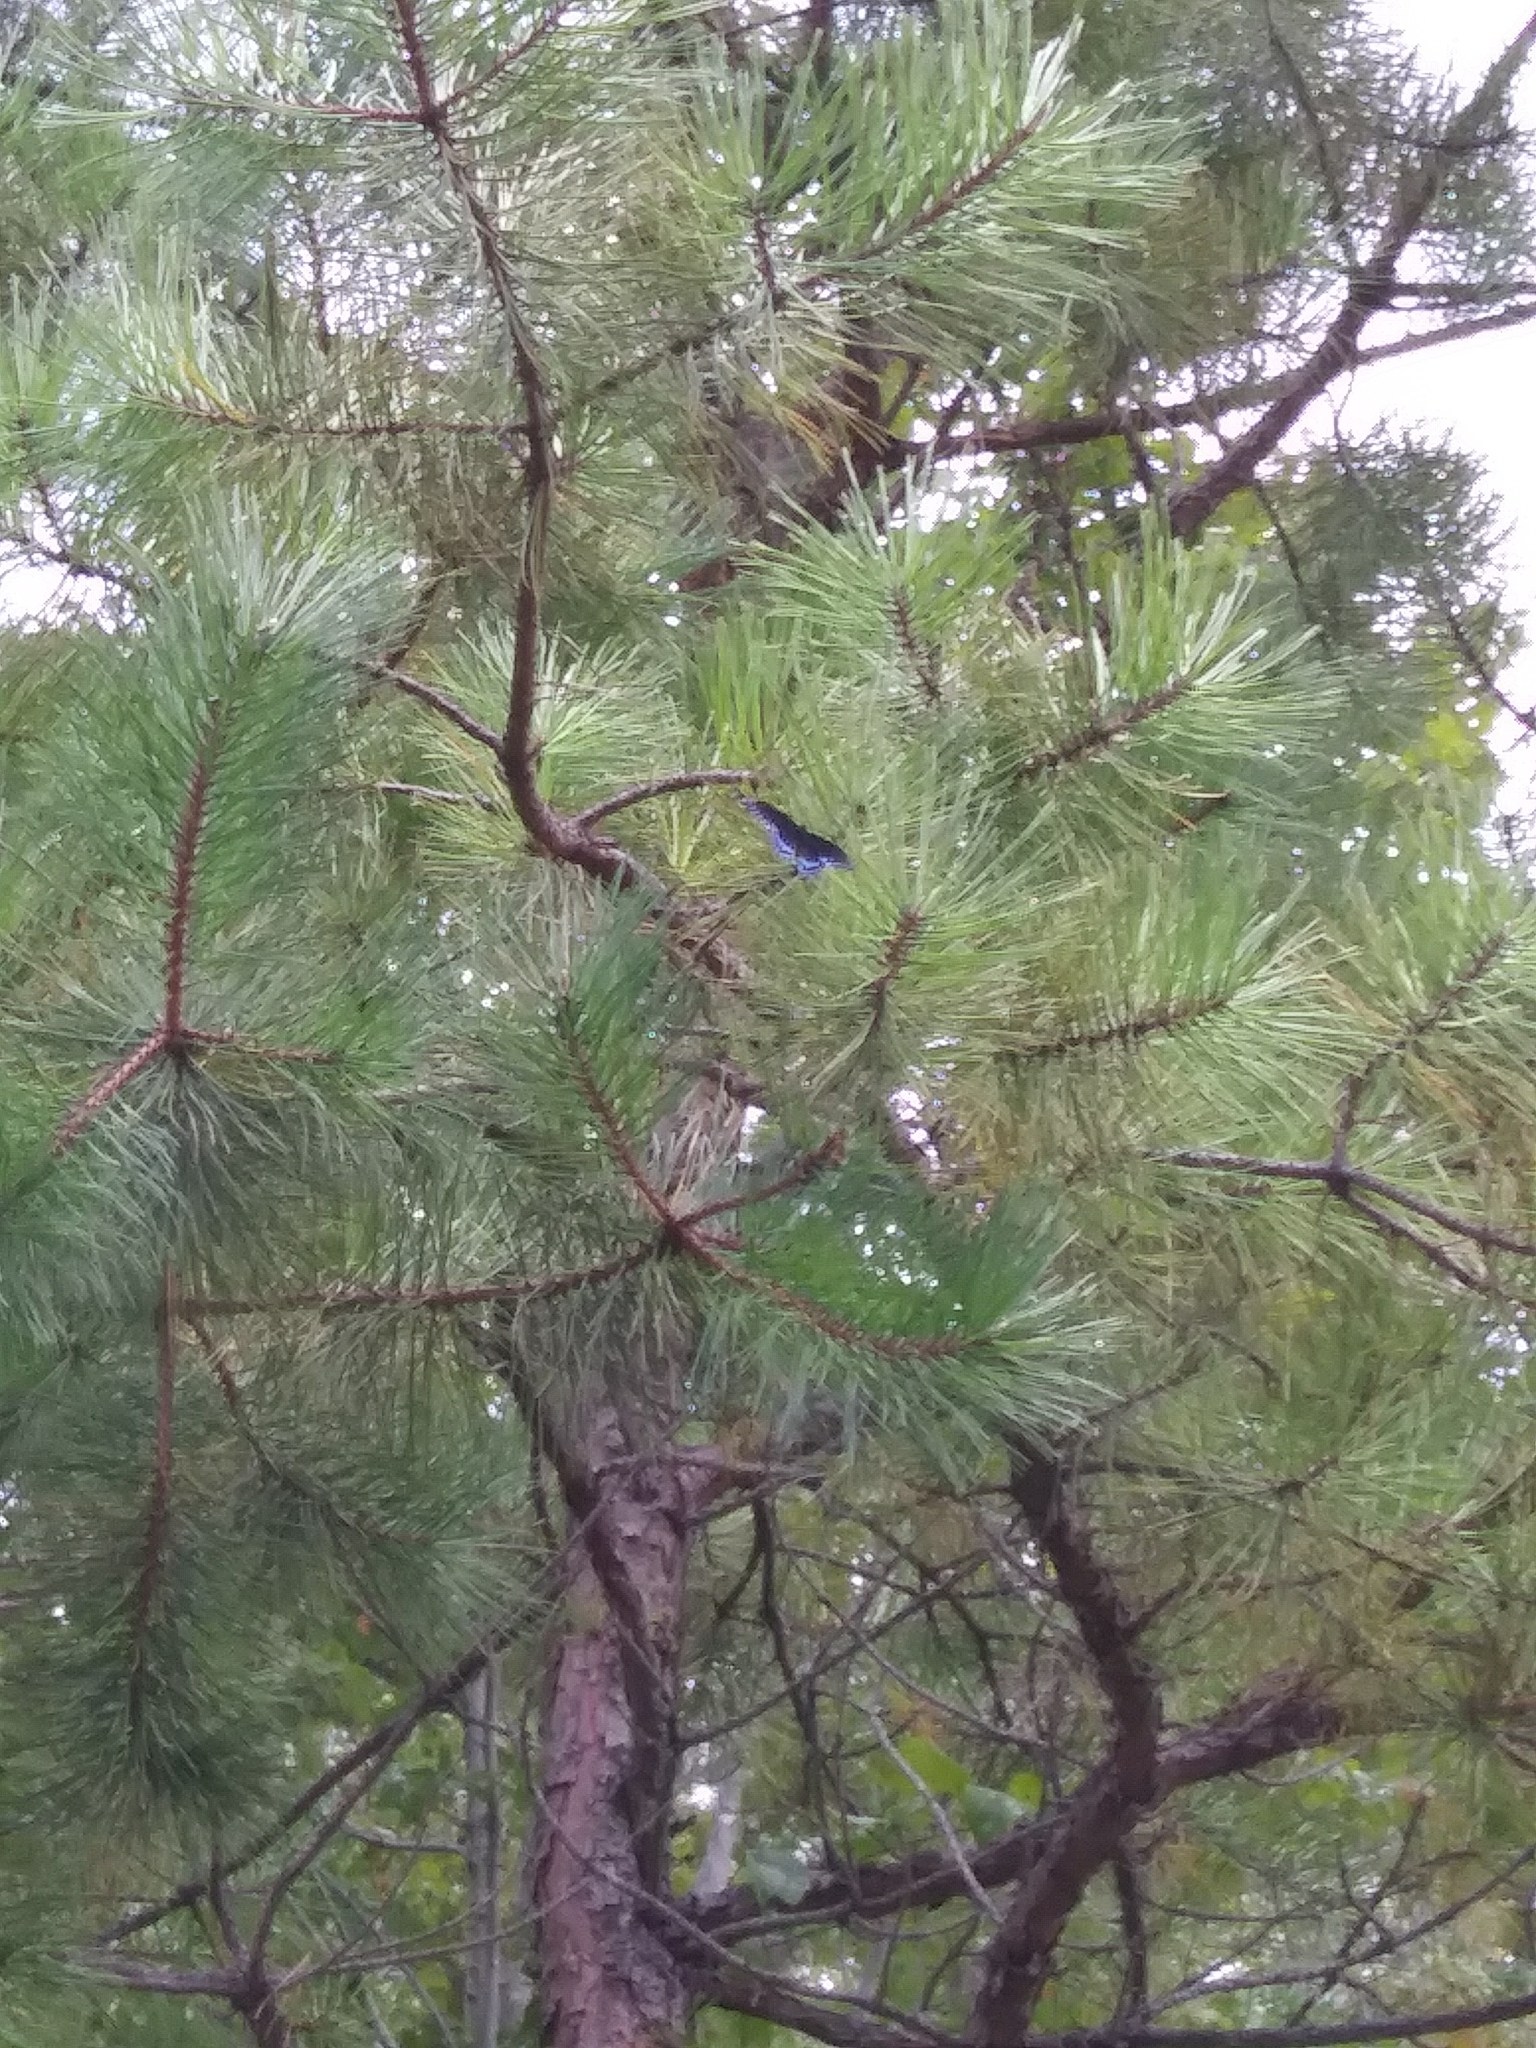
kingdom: Animalia
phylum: Arthropoda
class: Insecta
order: Lepidoptera
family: Nymphalidae
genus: Limenitis
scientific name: Limenitis astyanax
